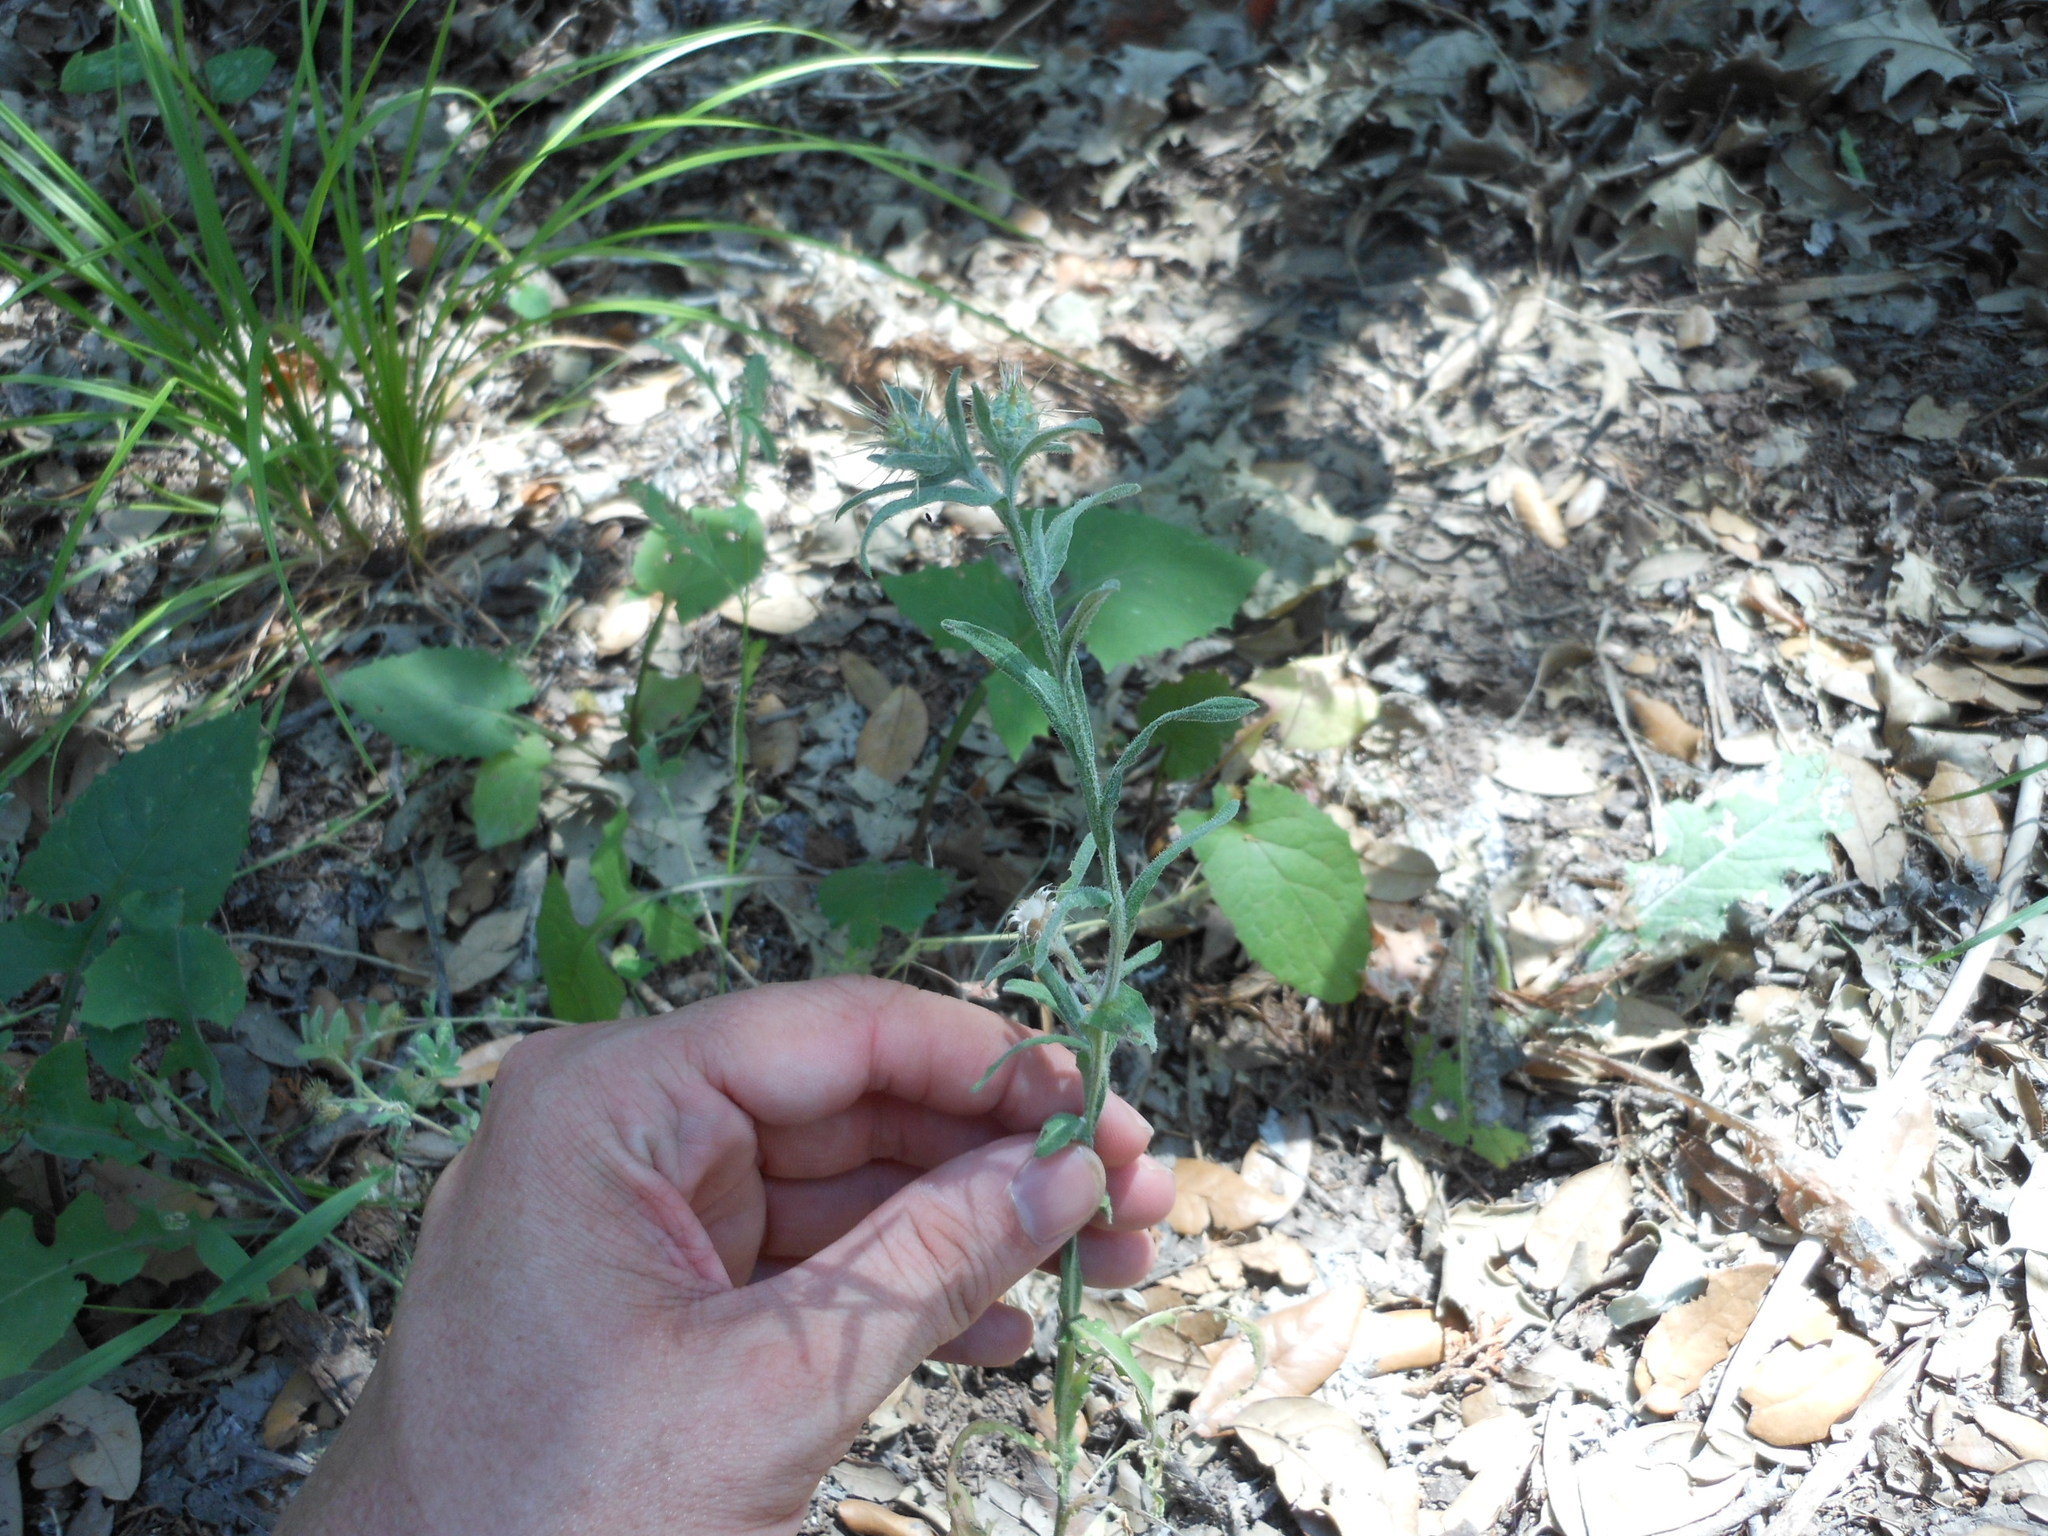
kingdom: Plantae
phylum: Tracheophyta
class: Magnoliopsida
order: Asterales
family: Asteraceae
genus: Centaurea
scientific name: Centaurea melitensis
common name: Maltese star-thistle
